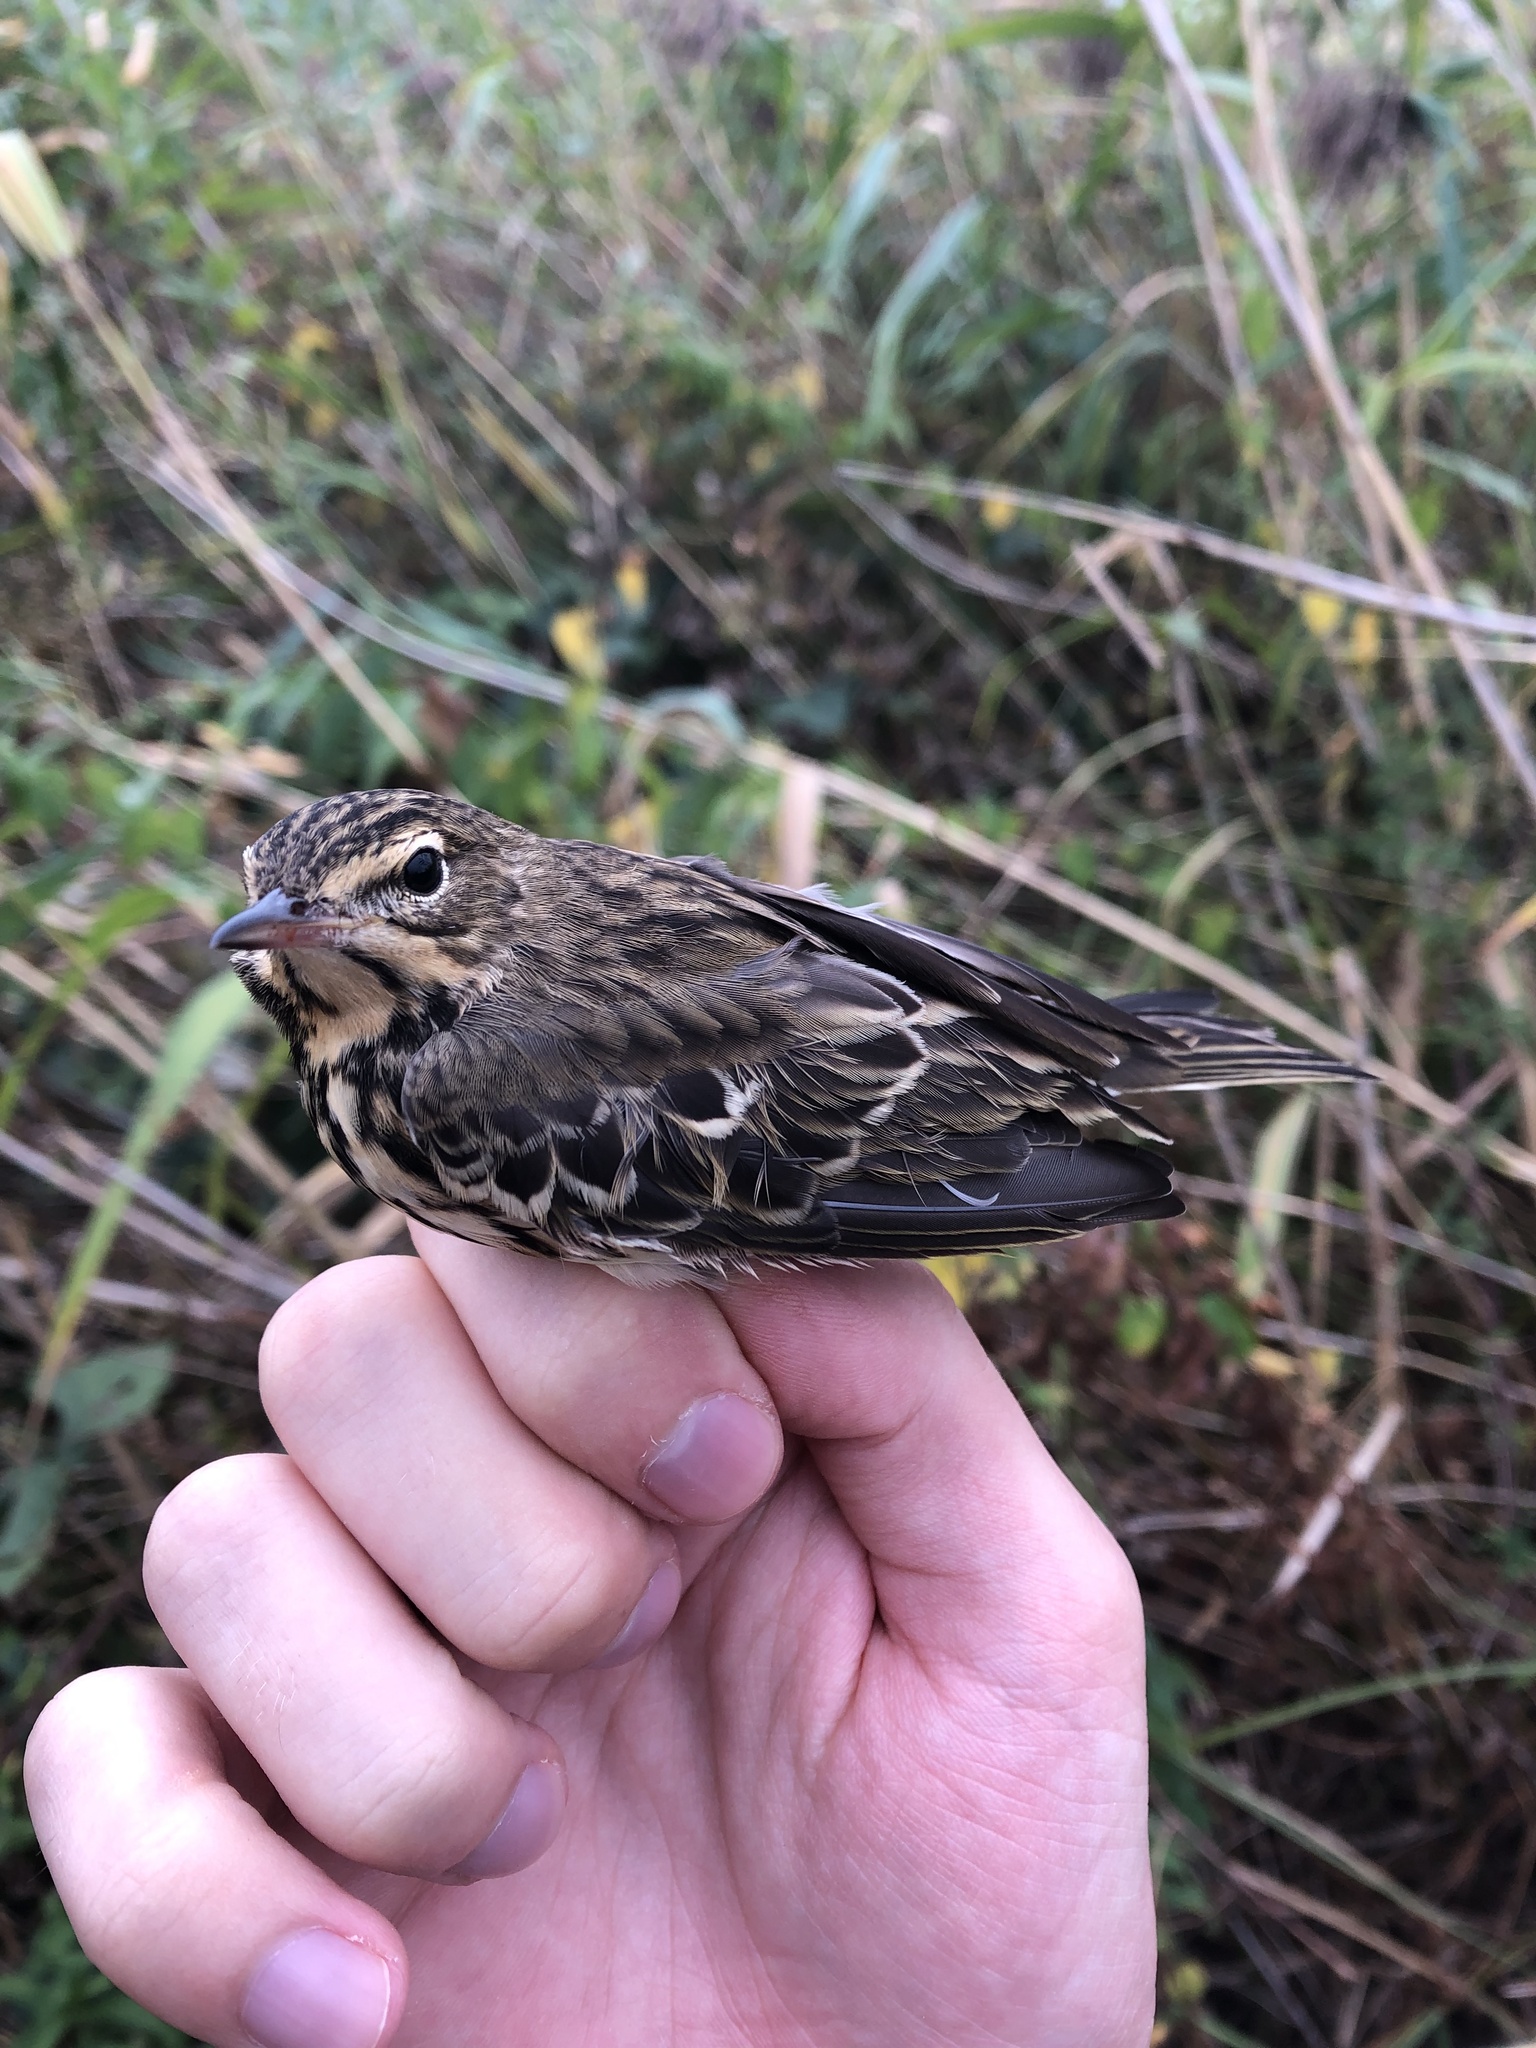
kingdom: Animalia
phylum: Chordata
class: Aves
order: Passeriformes
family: Motacillidae
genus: Anthus
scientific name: Anthus trivialis
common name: Tree pipit
